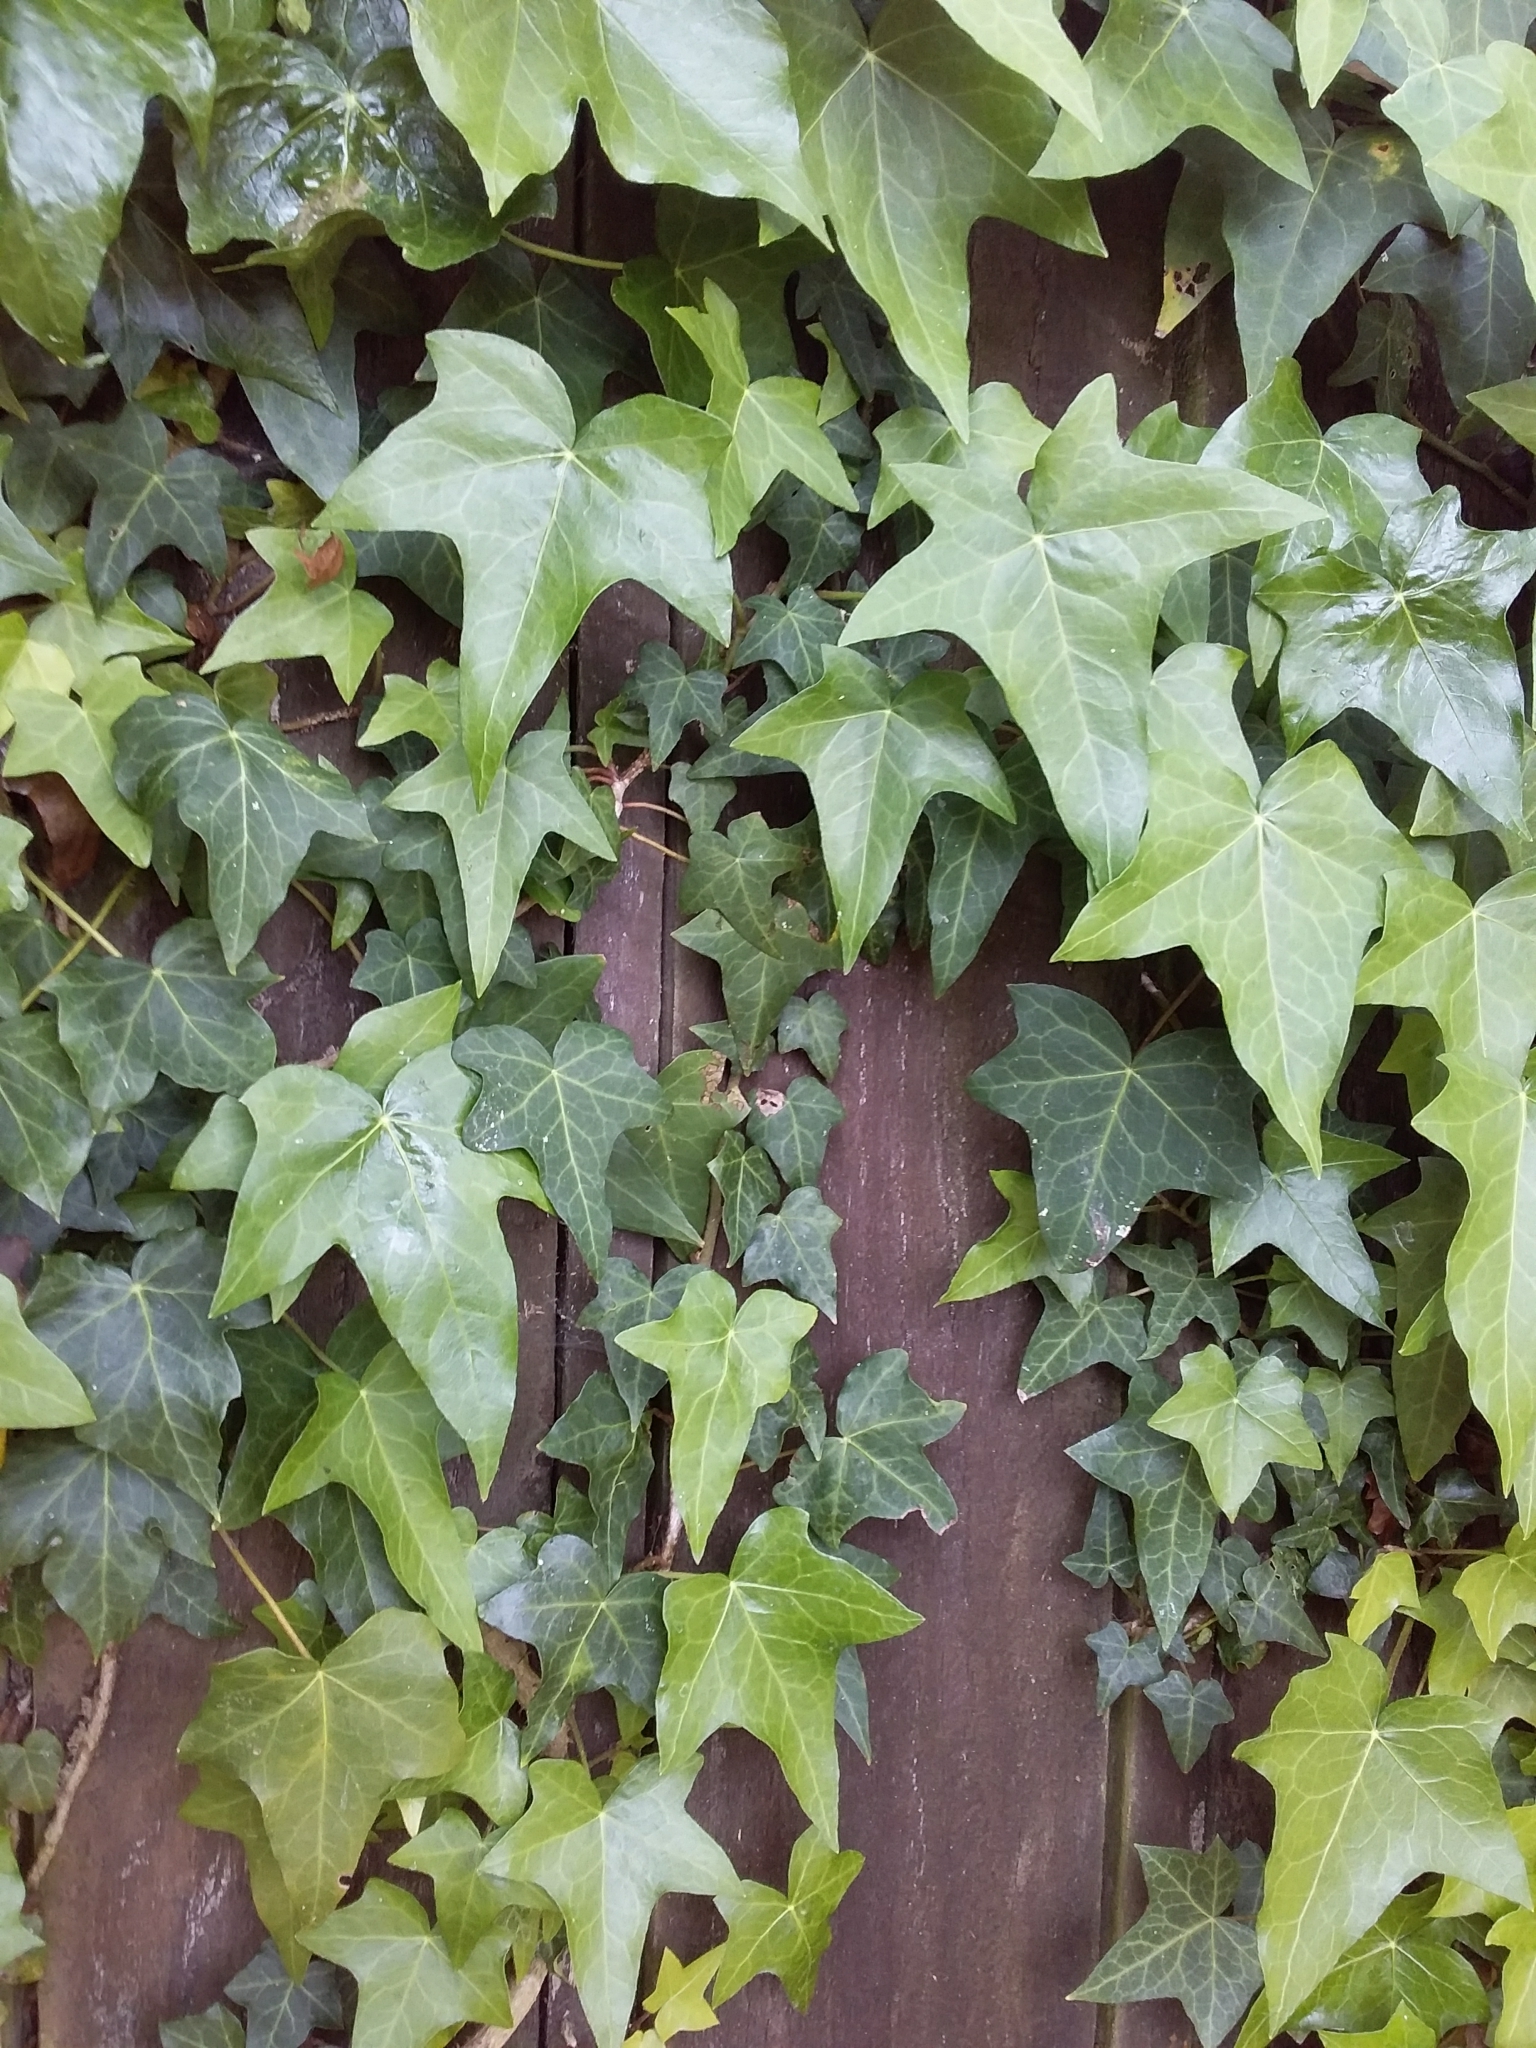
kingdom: Plantae
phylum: Tracheophyta
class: Magnoliopsida
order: Apiales
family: Araliaceae
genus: Hedera
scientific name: Hedera helix
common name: Ivy
